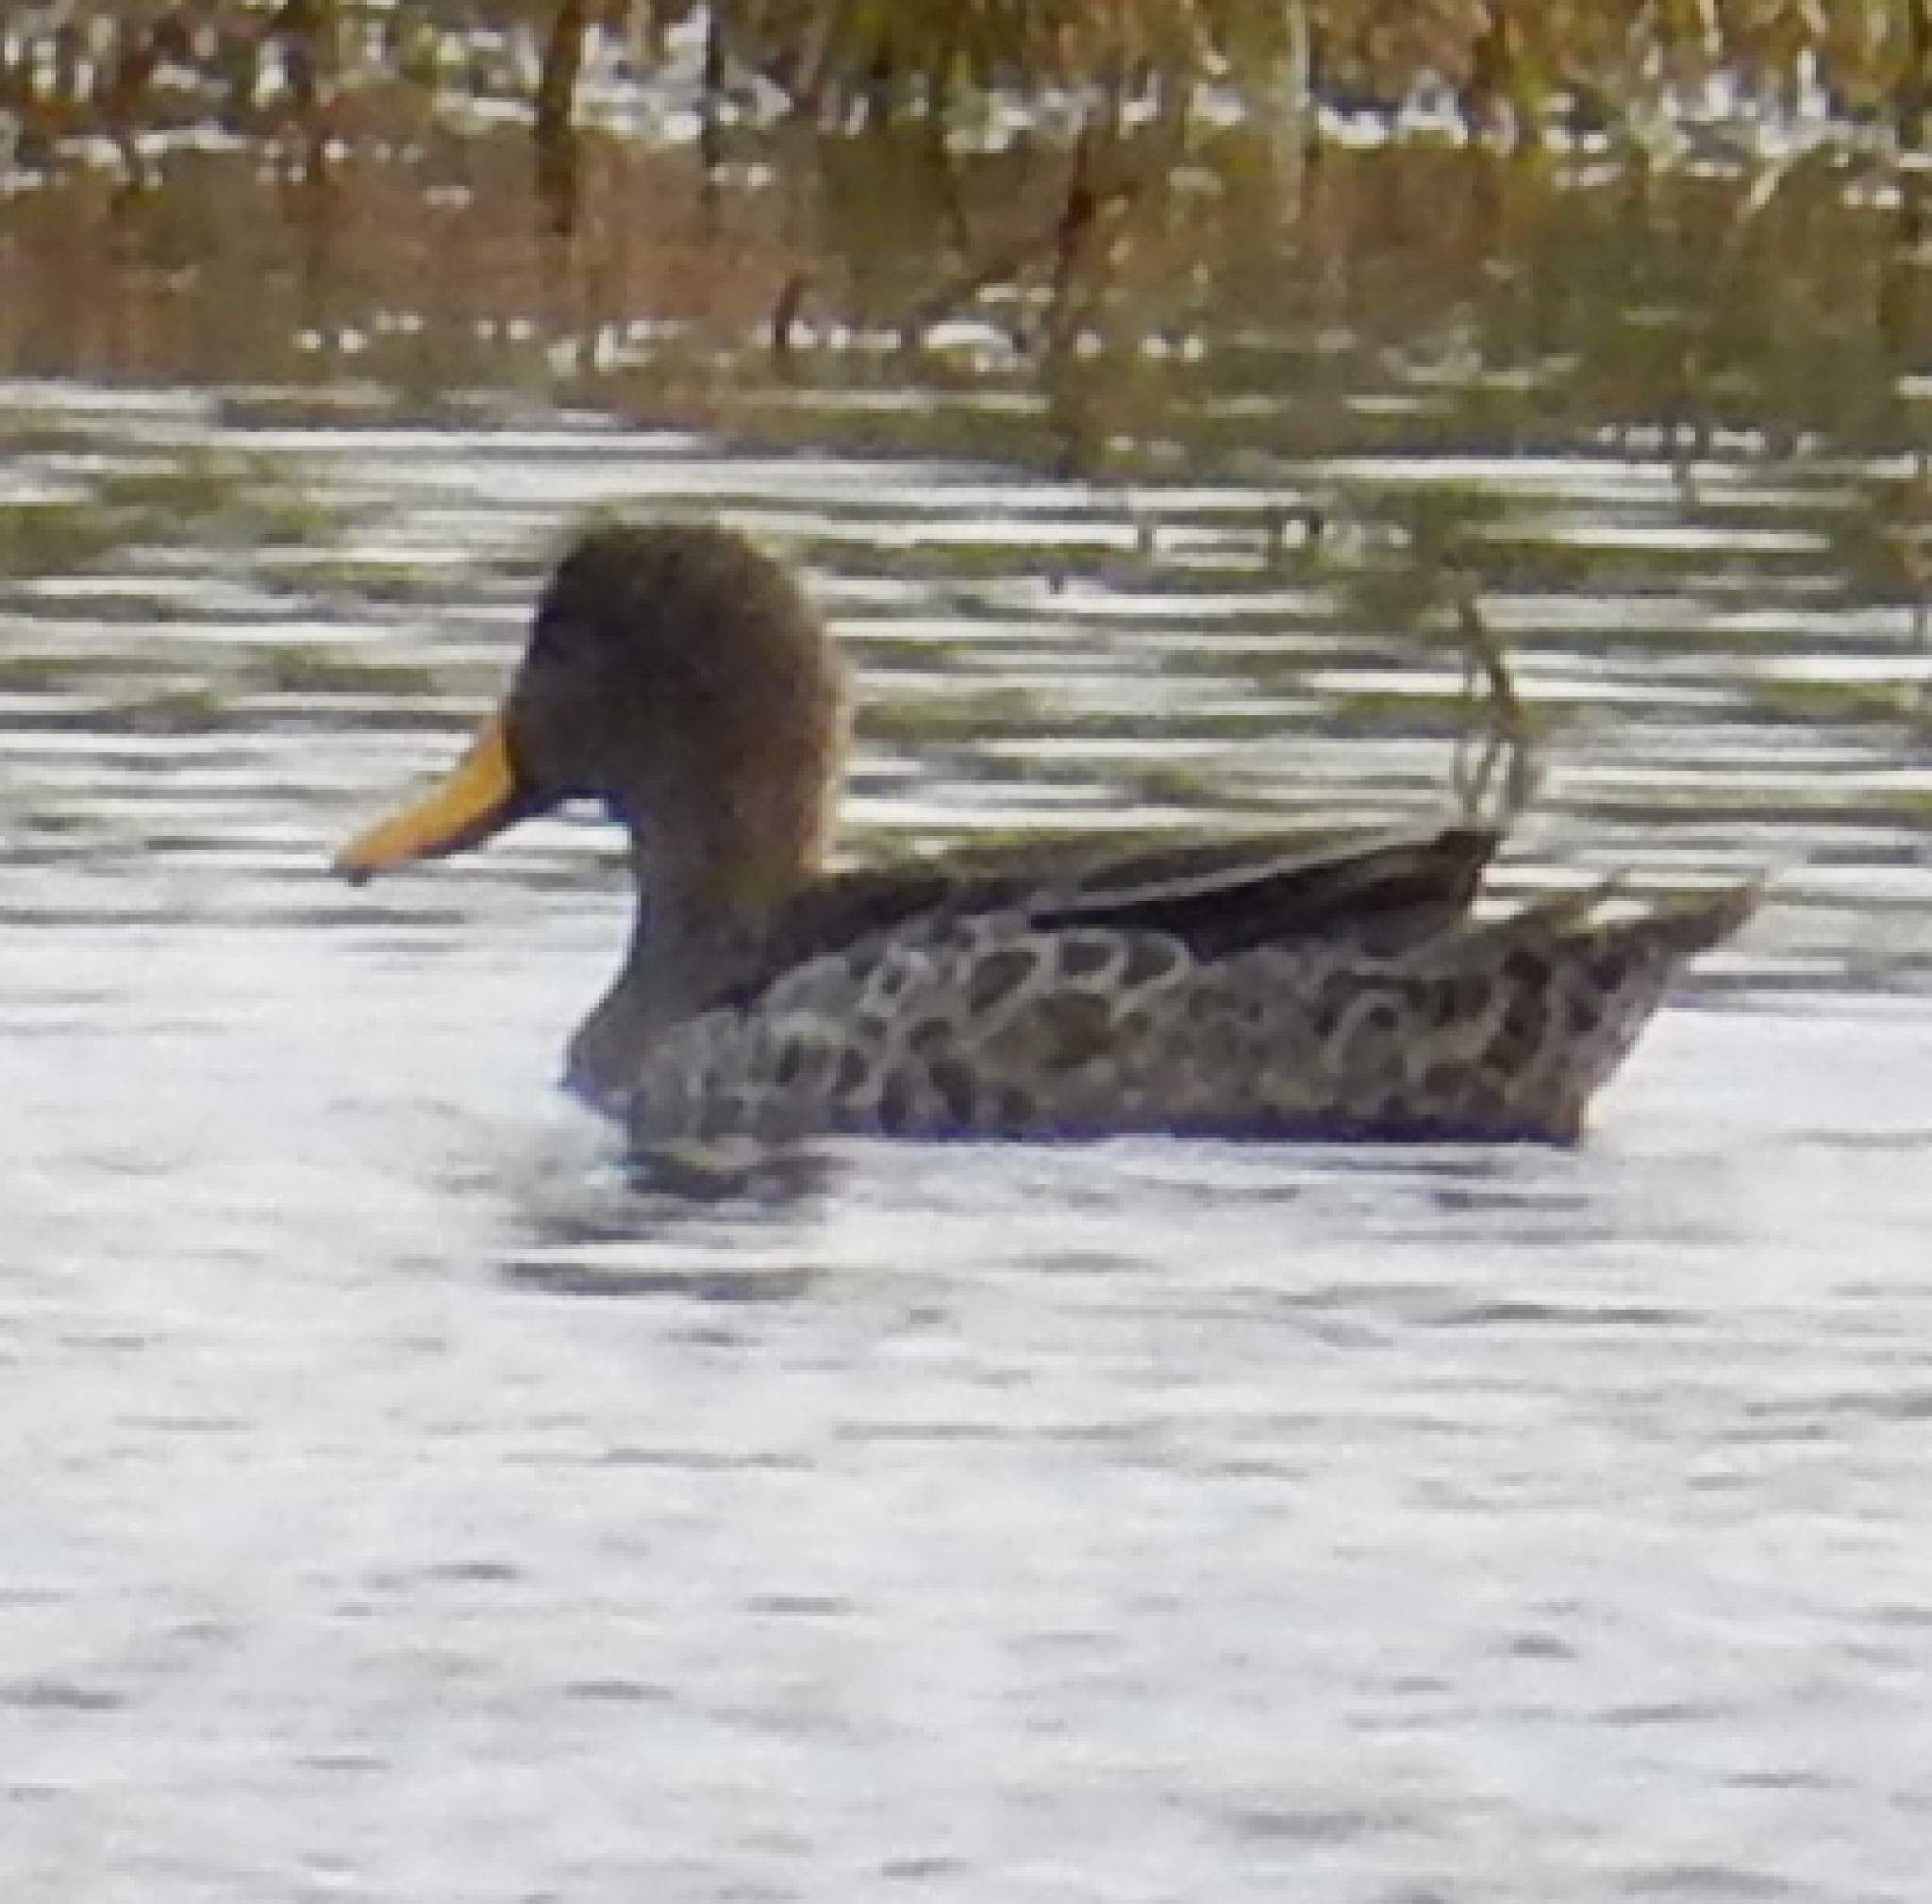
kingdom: Animalia
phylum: Chordata
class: Aves
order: Anseriformes
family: Anatidae
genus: Anas
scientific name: Anas undulata
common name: Yellow-billed duck
